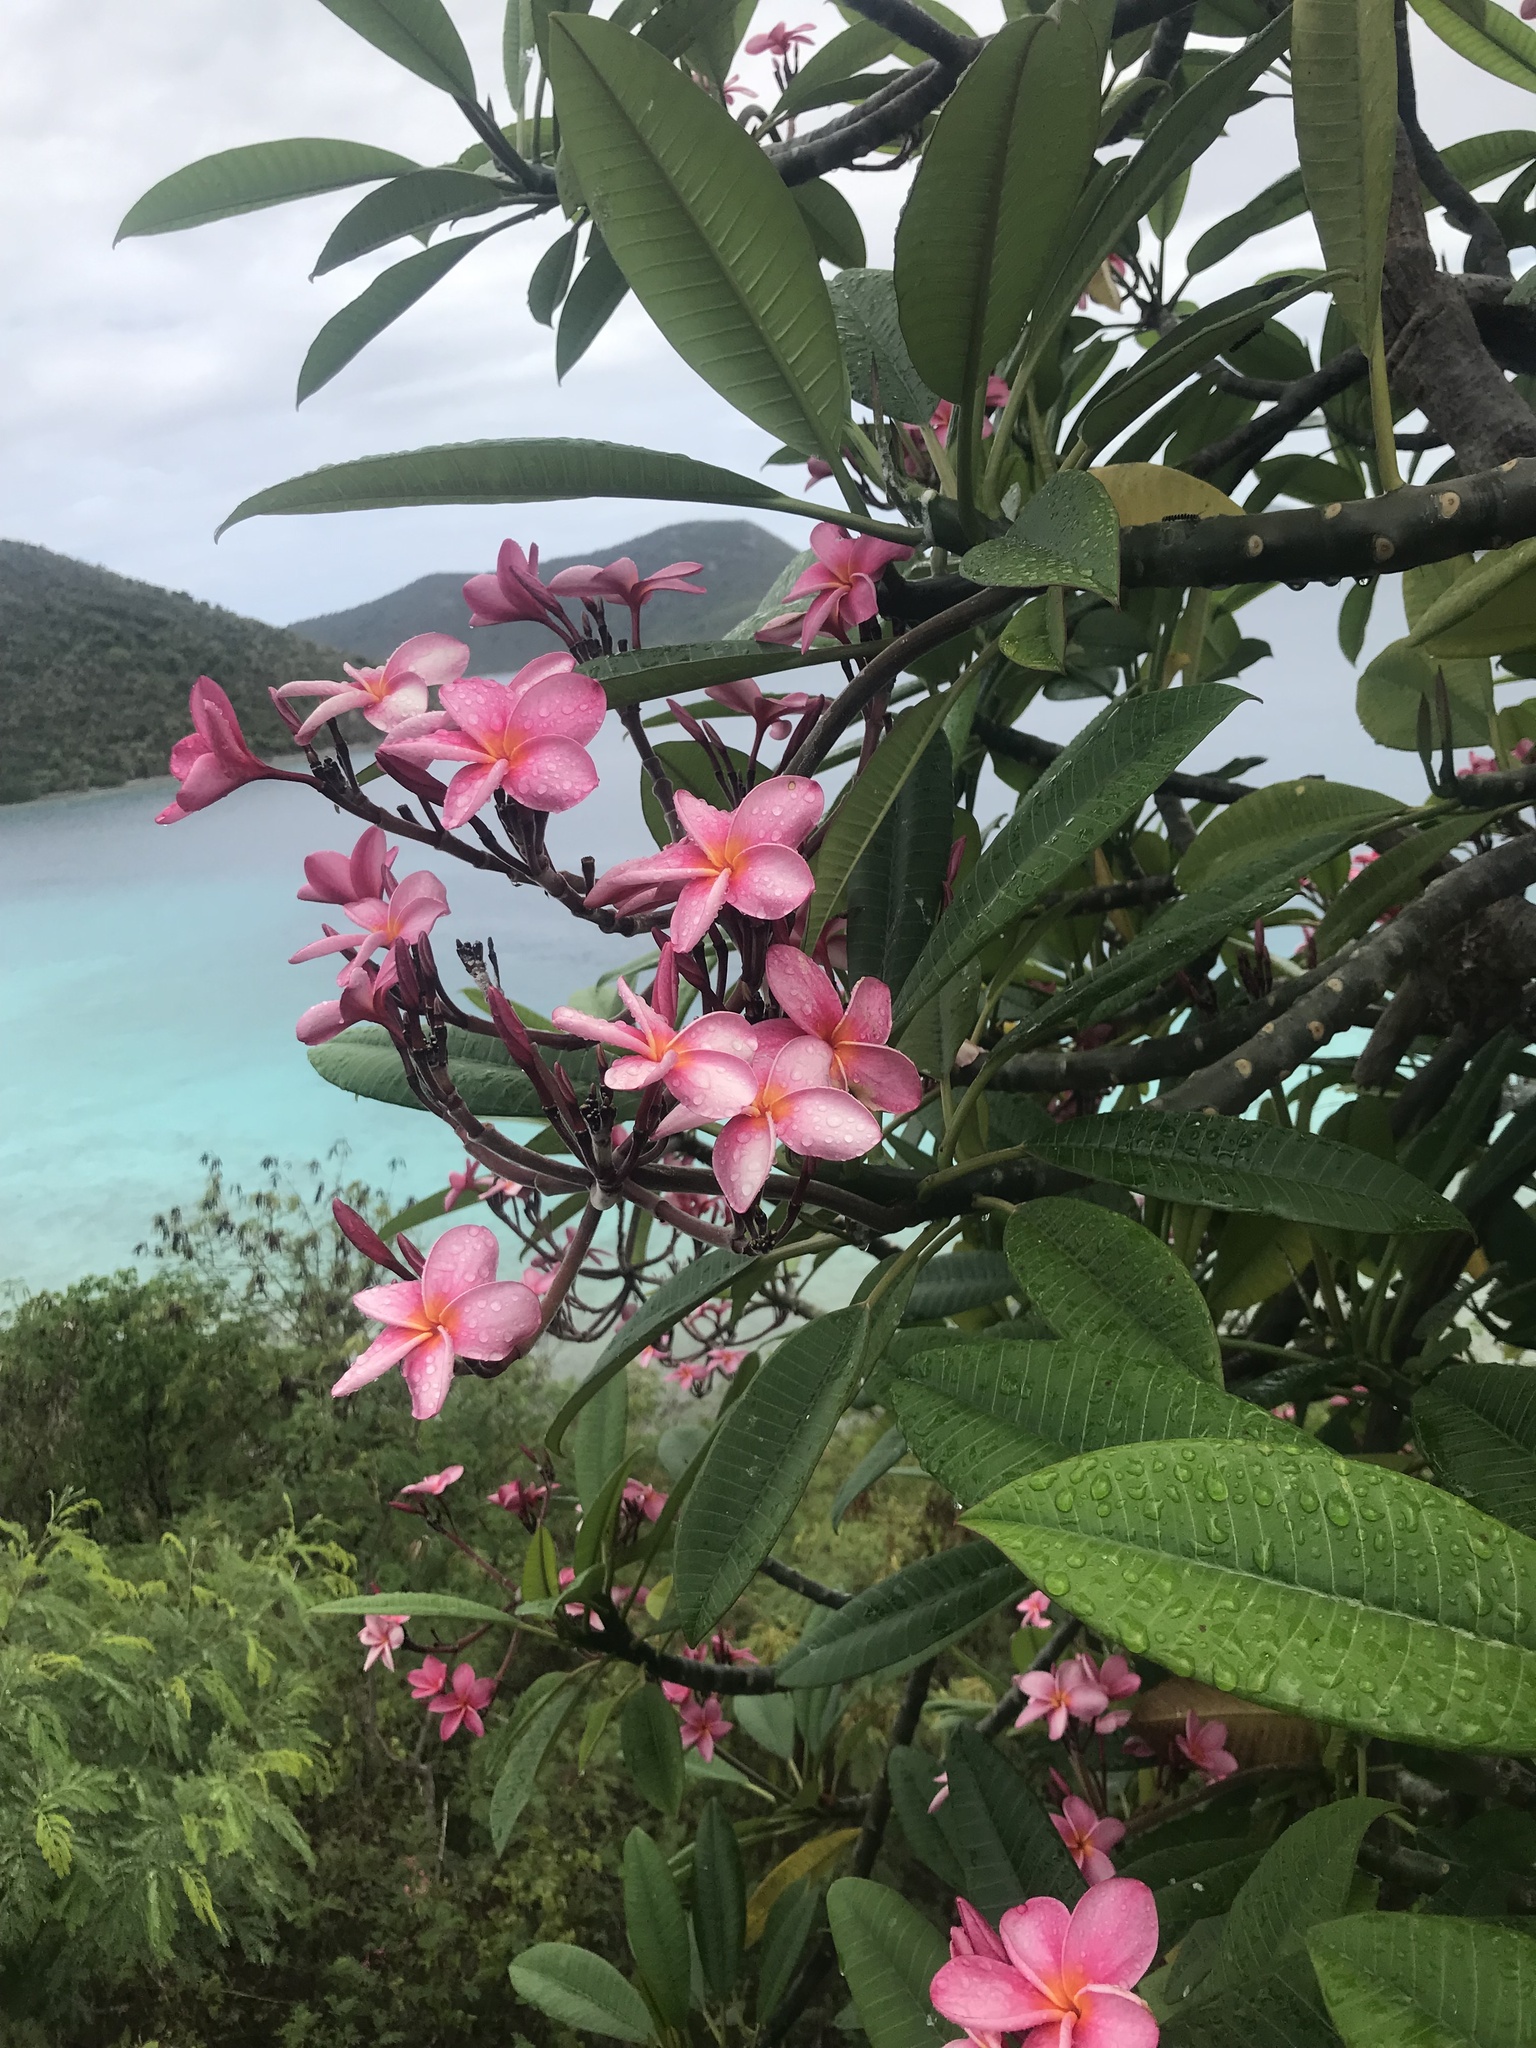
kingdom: Plantae
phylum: Tracheophyta
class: Magnoliopsida
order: Gentianales
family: Apocynaceae
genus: Plumeria
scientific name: Plumeria rubra
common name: Pagoda-tree
